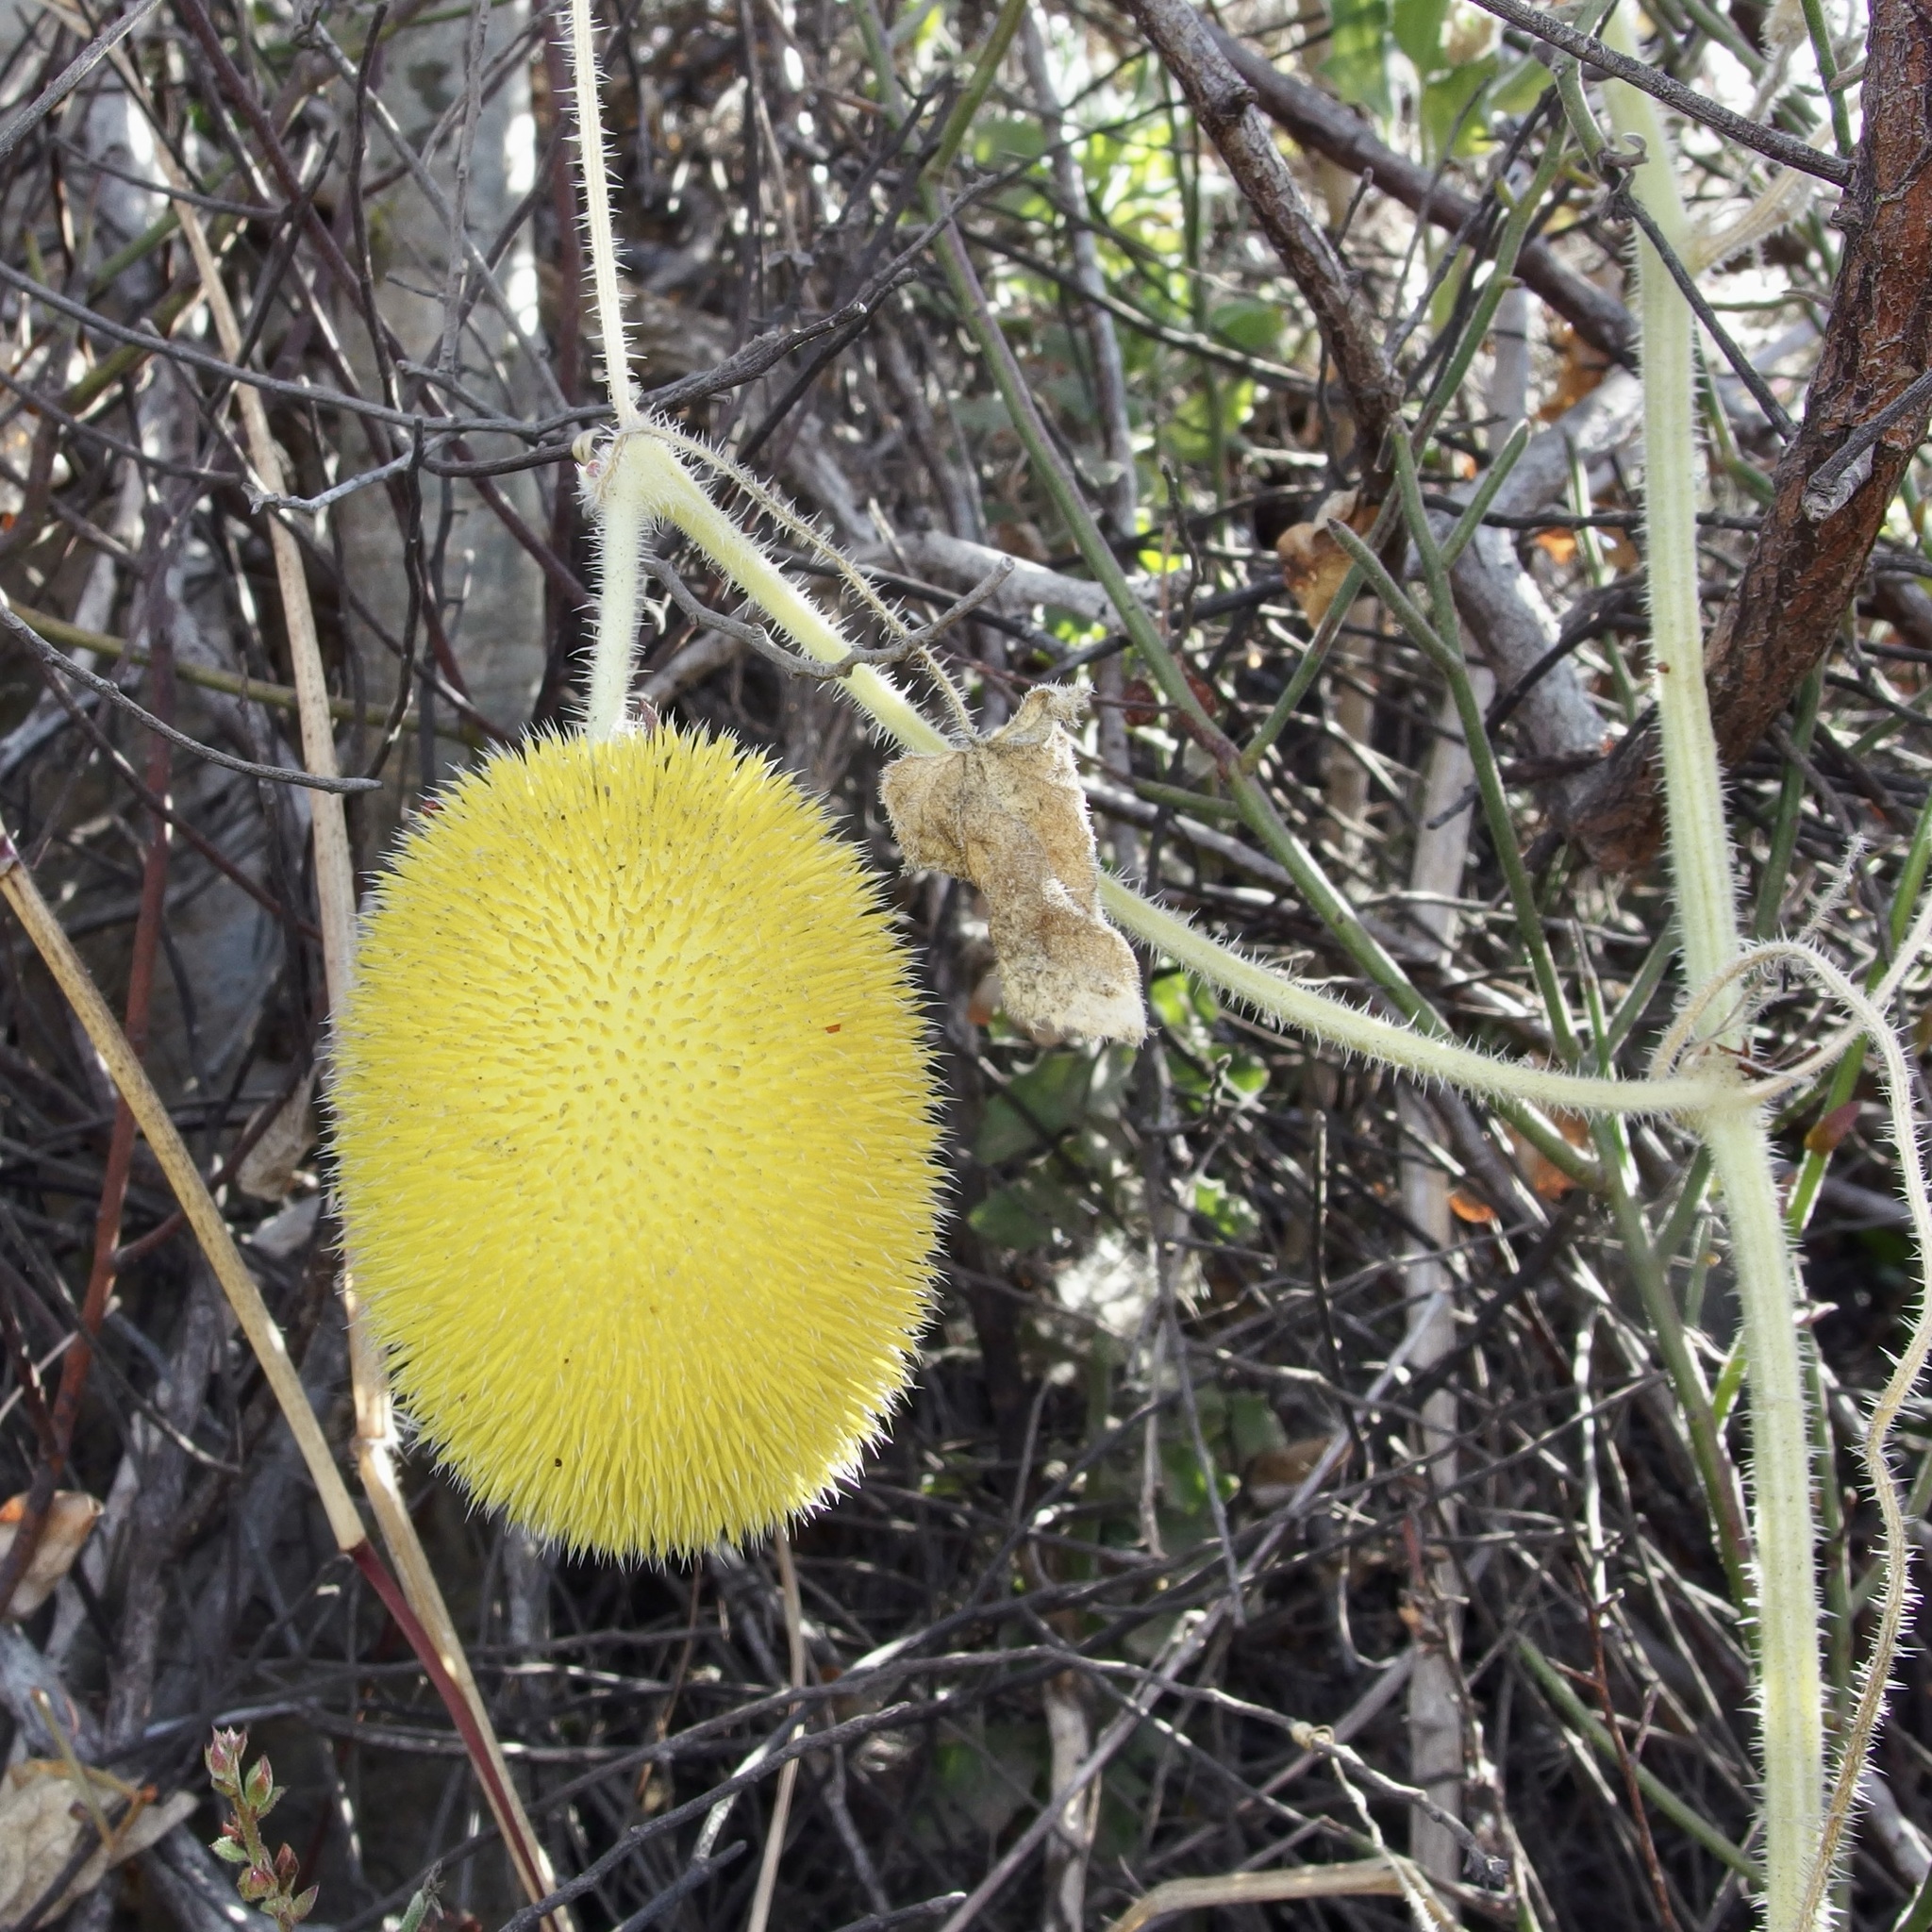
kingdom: Plantae
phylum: Tracheophyta
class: Magnoliopsida
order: Cucurbitales
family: Cucurbitaceae
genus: Cucumis
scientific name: Cucumis dipsaceus
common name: Hedgehog gourd
